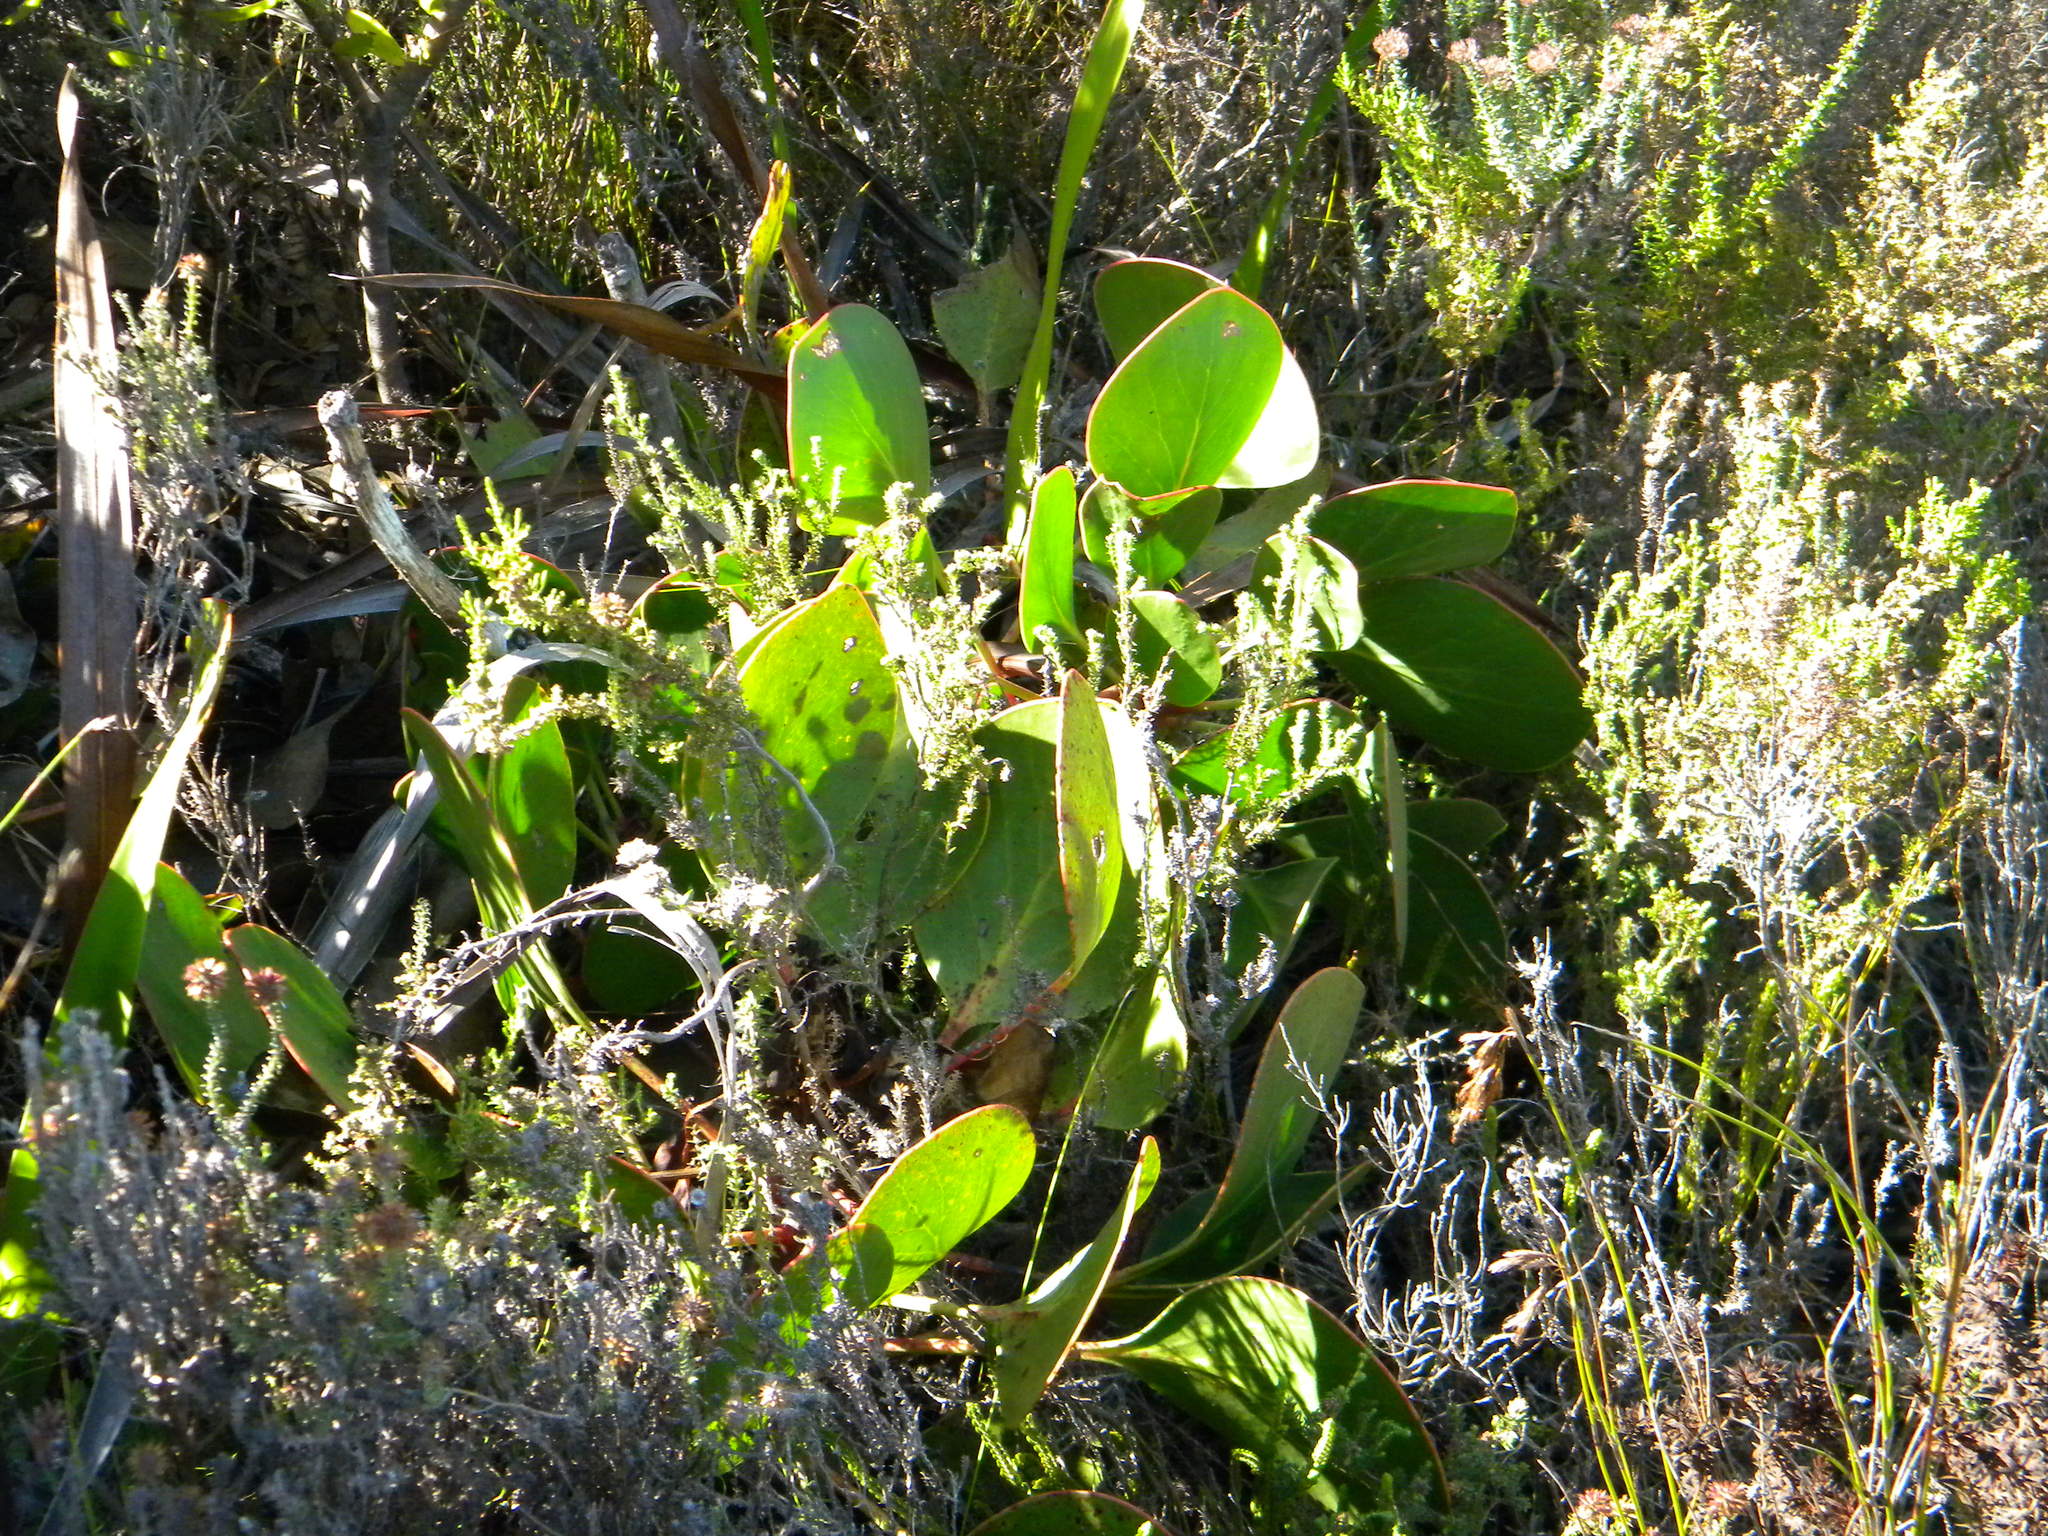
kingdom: Plantae
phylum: Tracheophyta
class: Magnoliopsida
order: Proteales
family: Proteaceae
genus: Protea
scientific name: Protea cynaroides
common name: King protea
